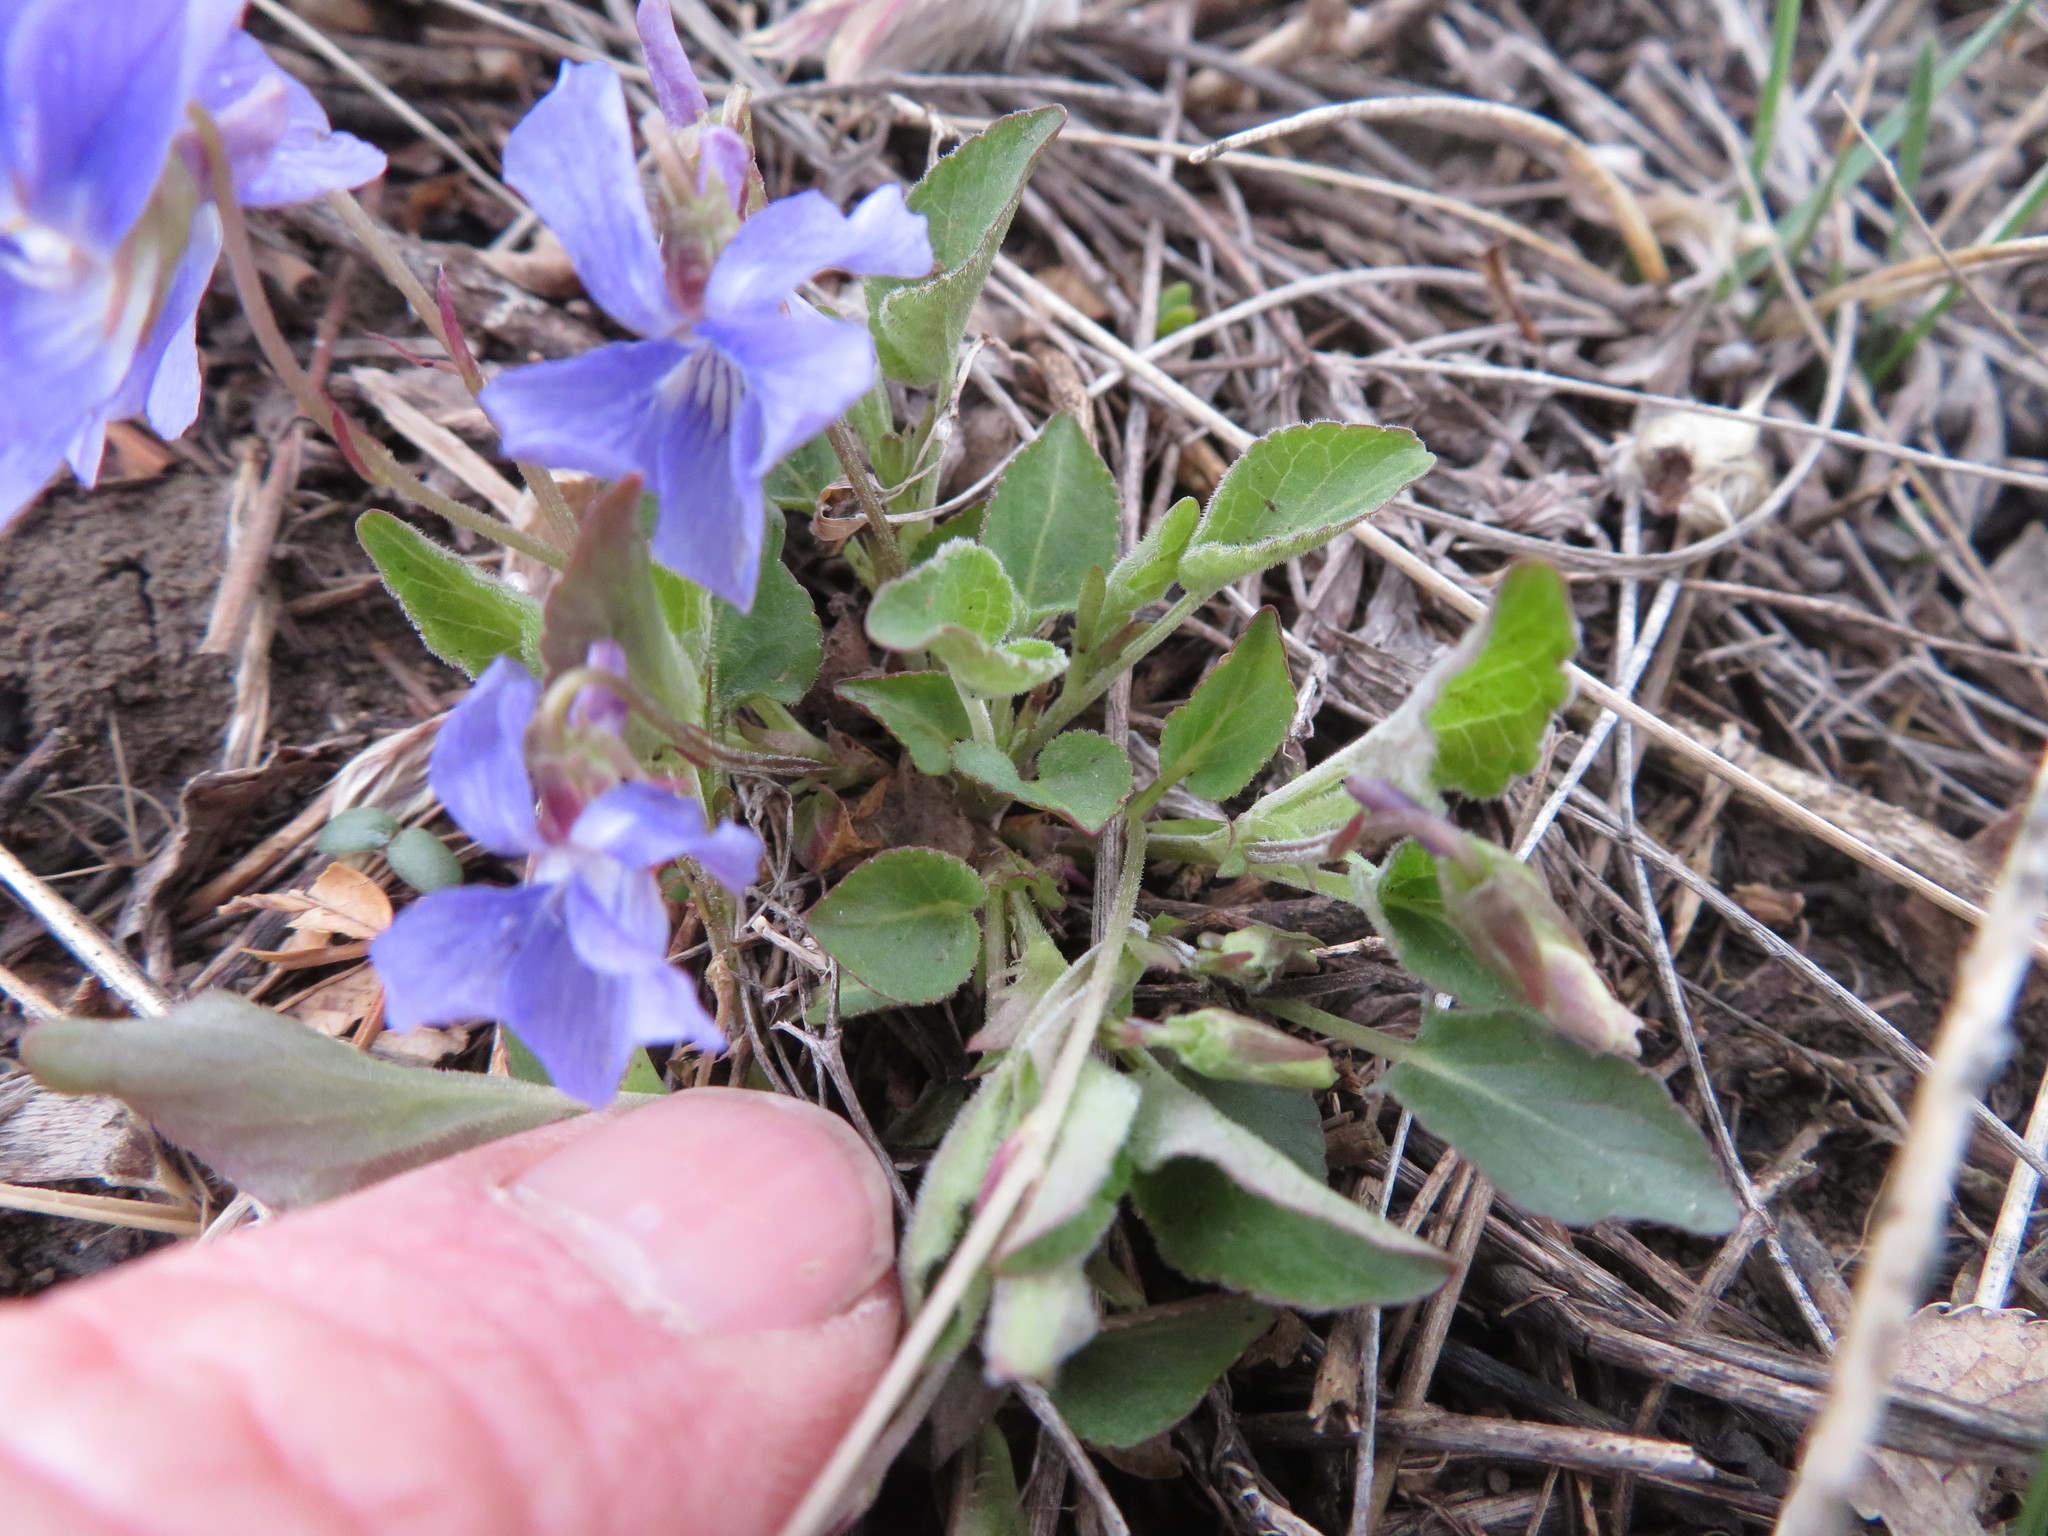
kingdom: Plantae
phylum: Tracheophyta
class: Magnoliopsida
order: Malpighiales
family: Violaceae
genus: Viola
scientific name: Viola adunca
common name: Sand violet
